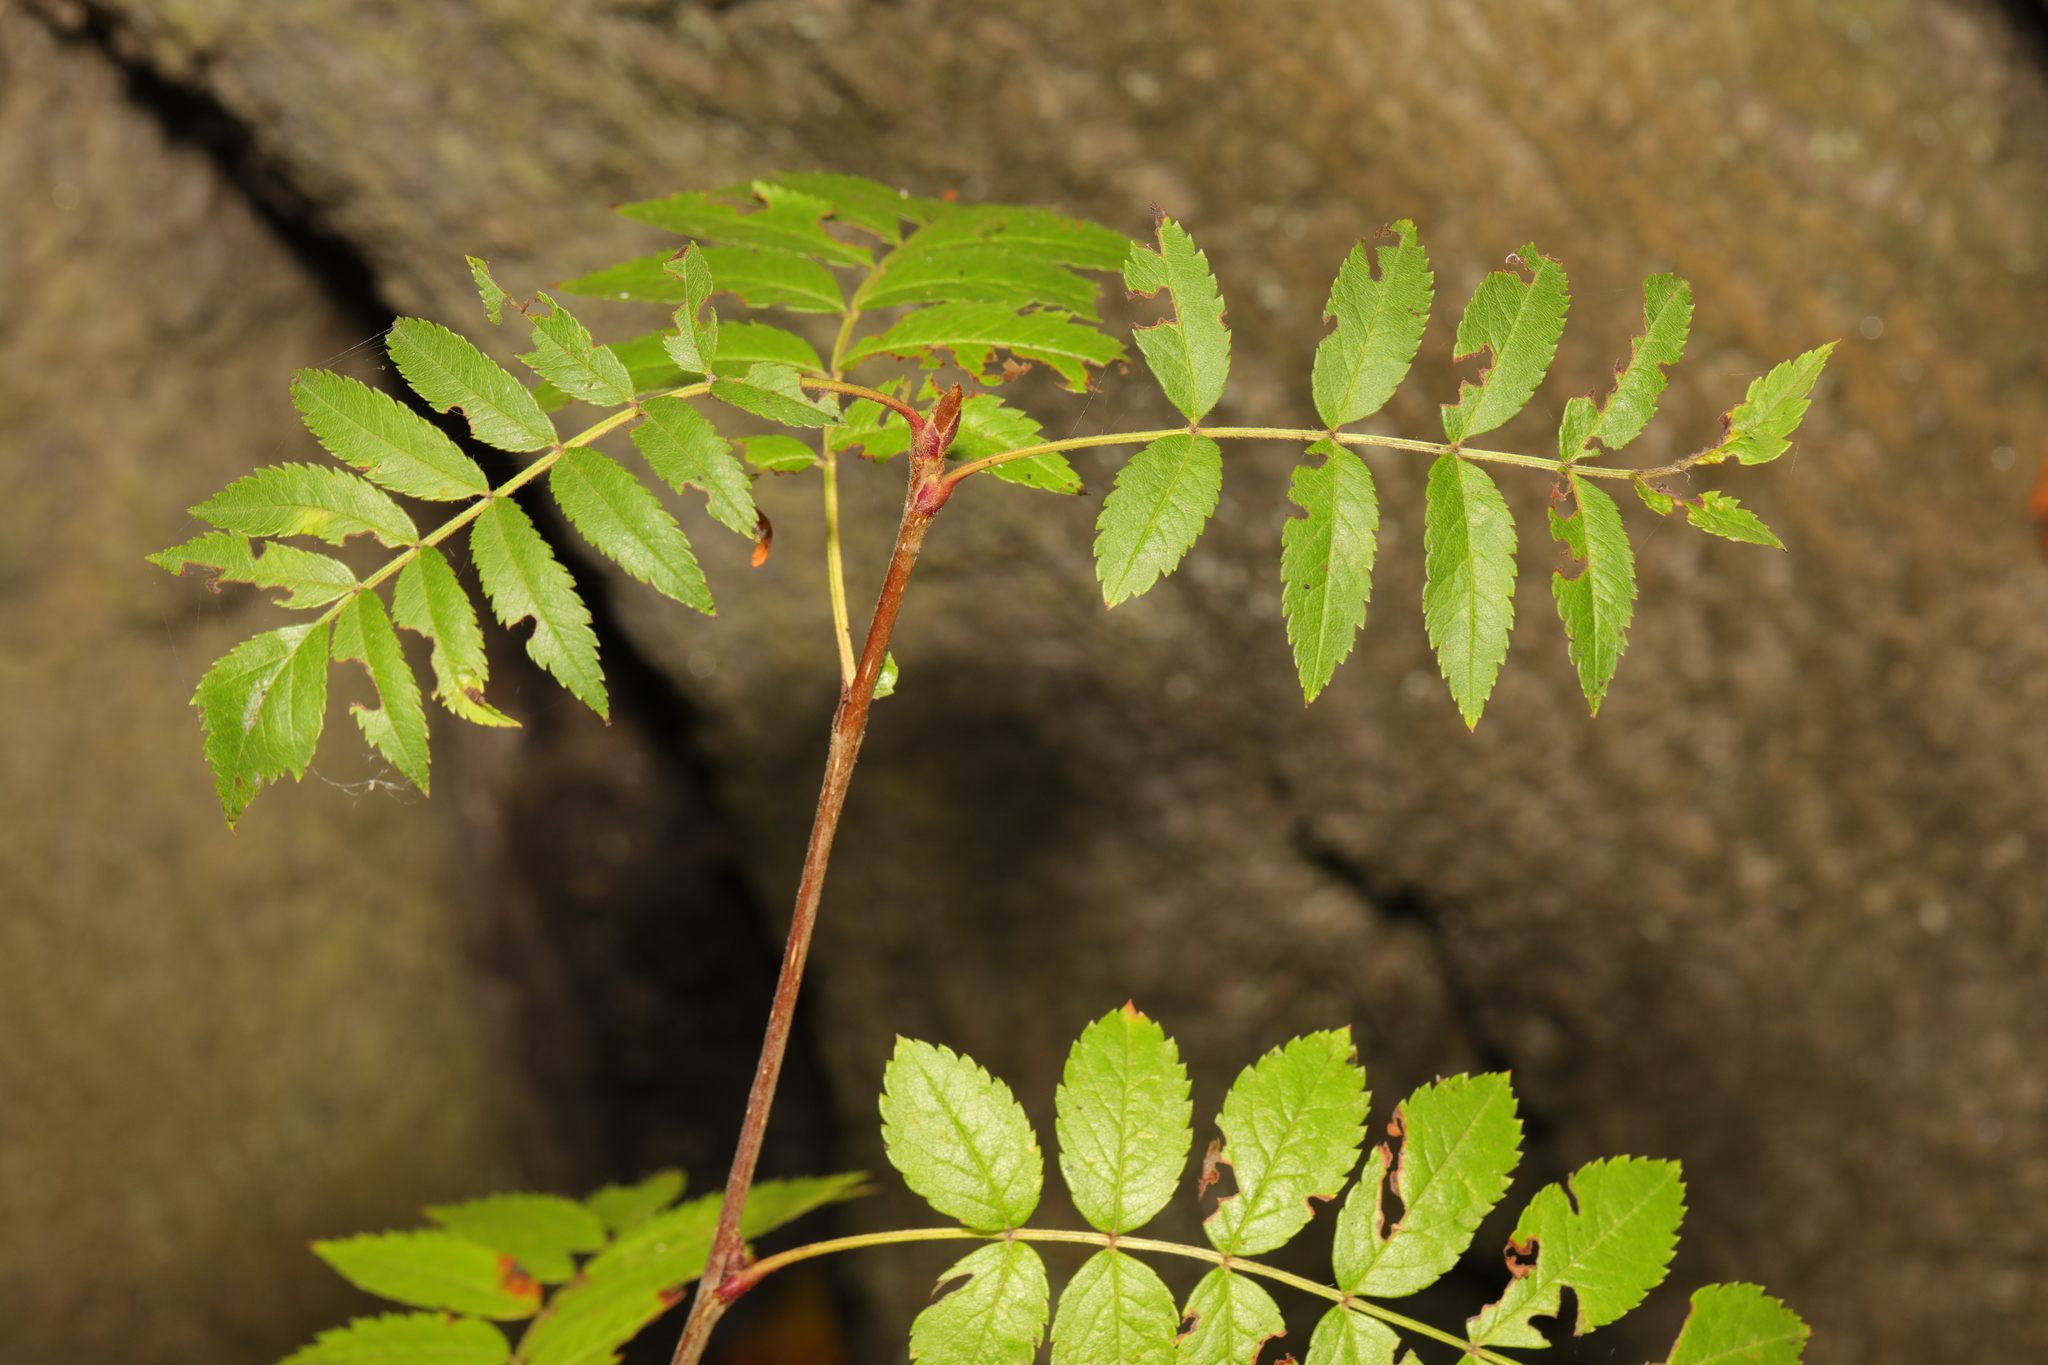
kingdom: Plantae
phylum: Tracheophyta
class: Magnoliopsida
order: Rosales
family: Rosaceae
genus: Sorbus
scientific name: Sorbus aucuparia
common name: Rowan
